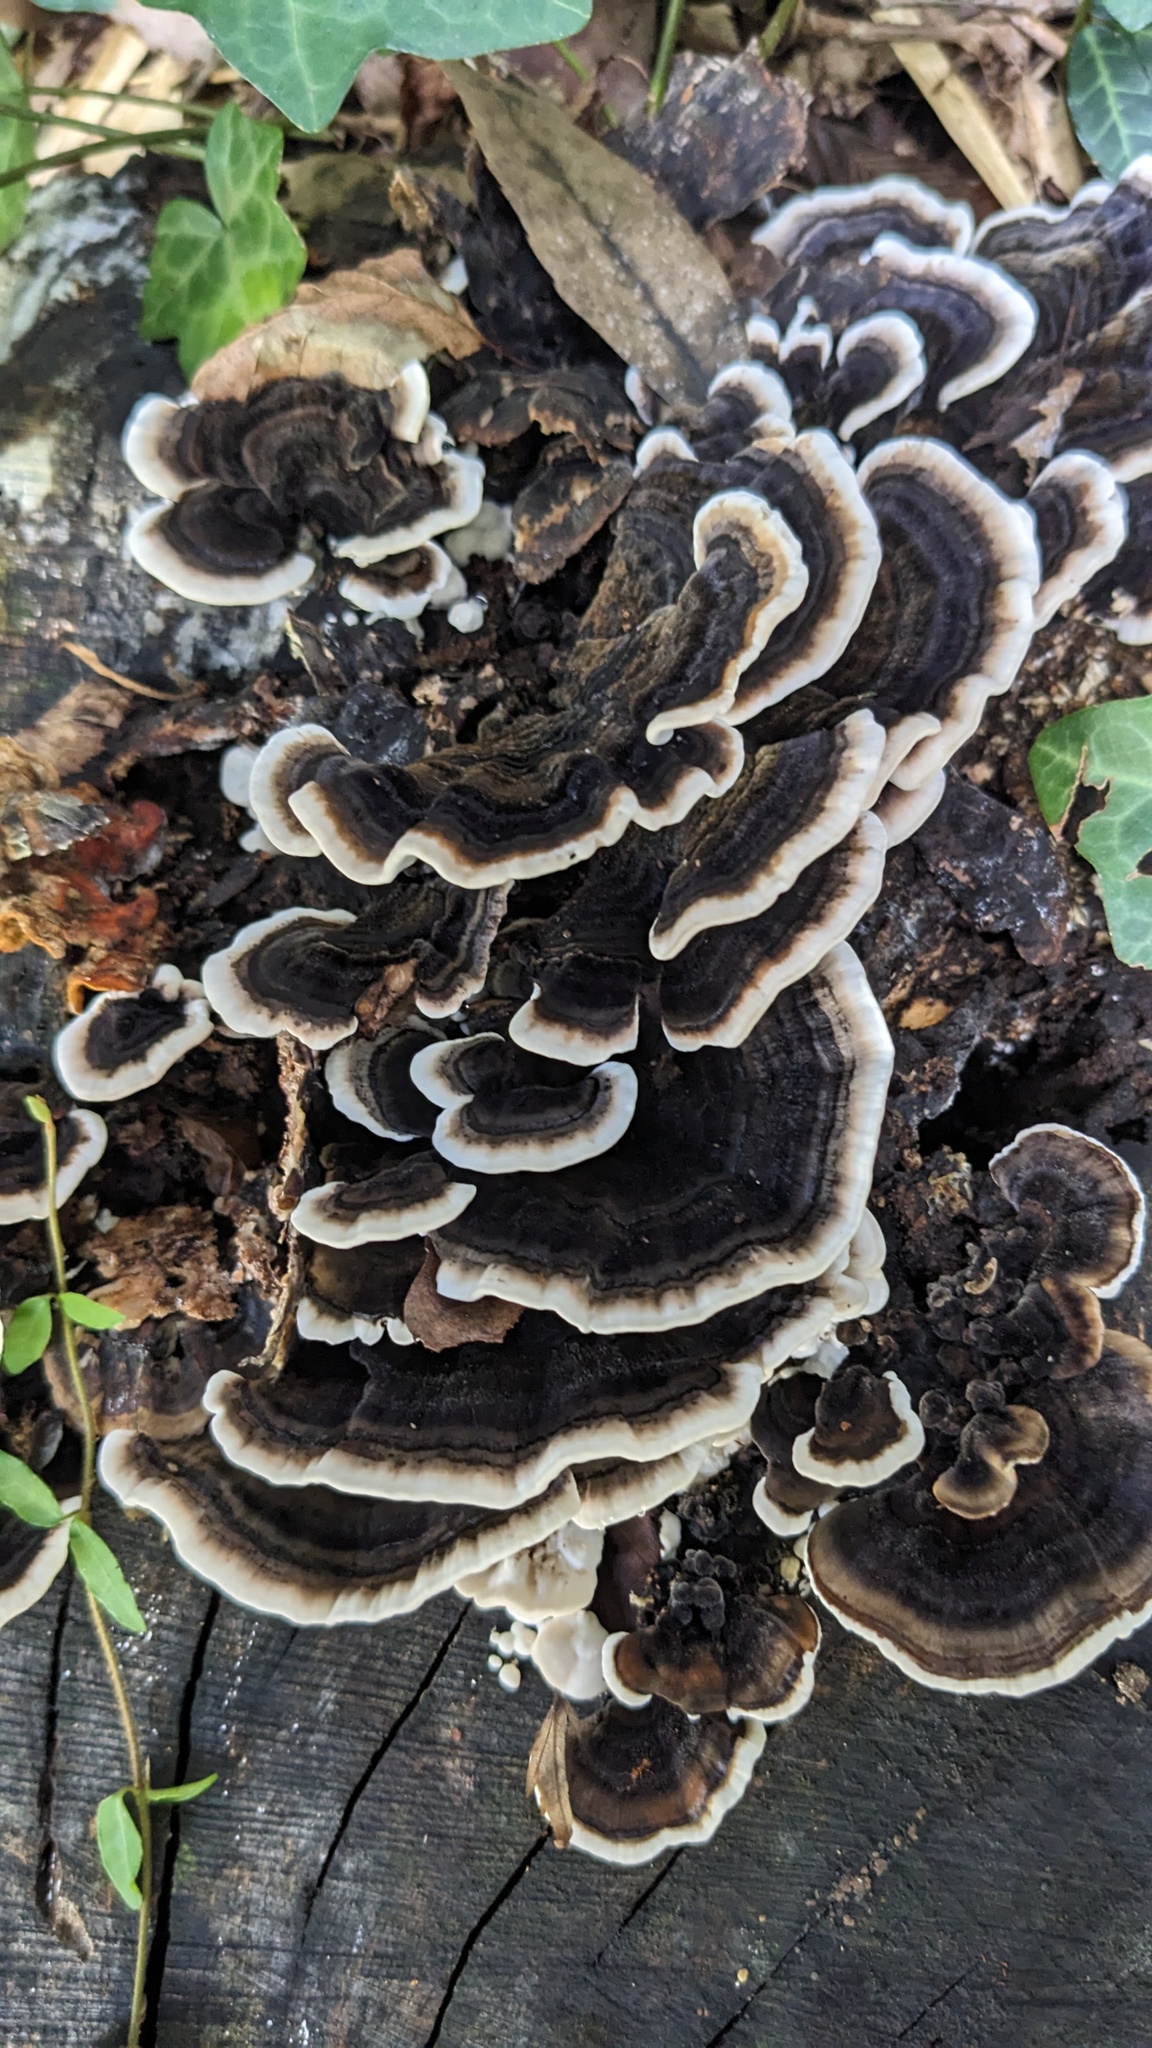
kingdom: Fungi
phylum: Basidiomycota
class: Agaricomycetes
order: Polyporales
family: Polyporaceae
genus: Trametes
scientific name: Trametes versicolor
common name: Turkeytail
